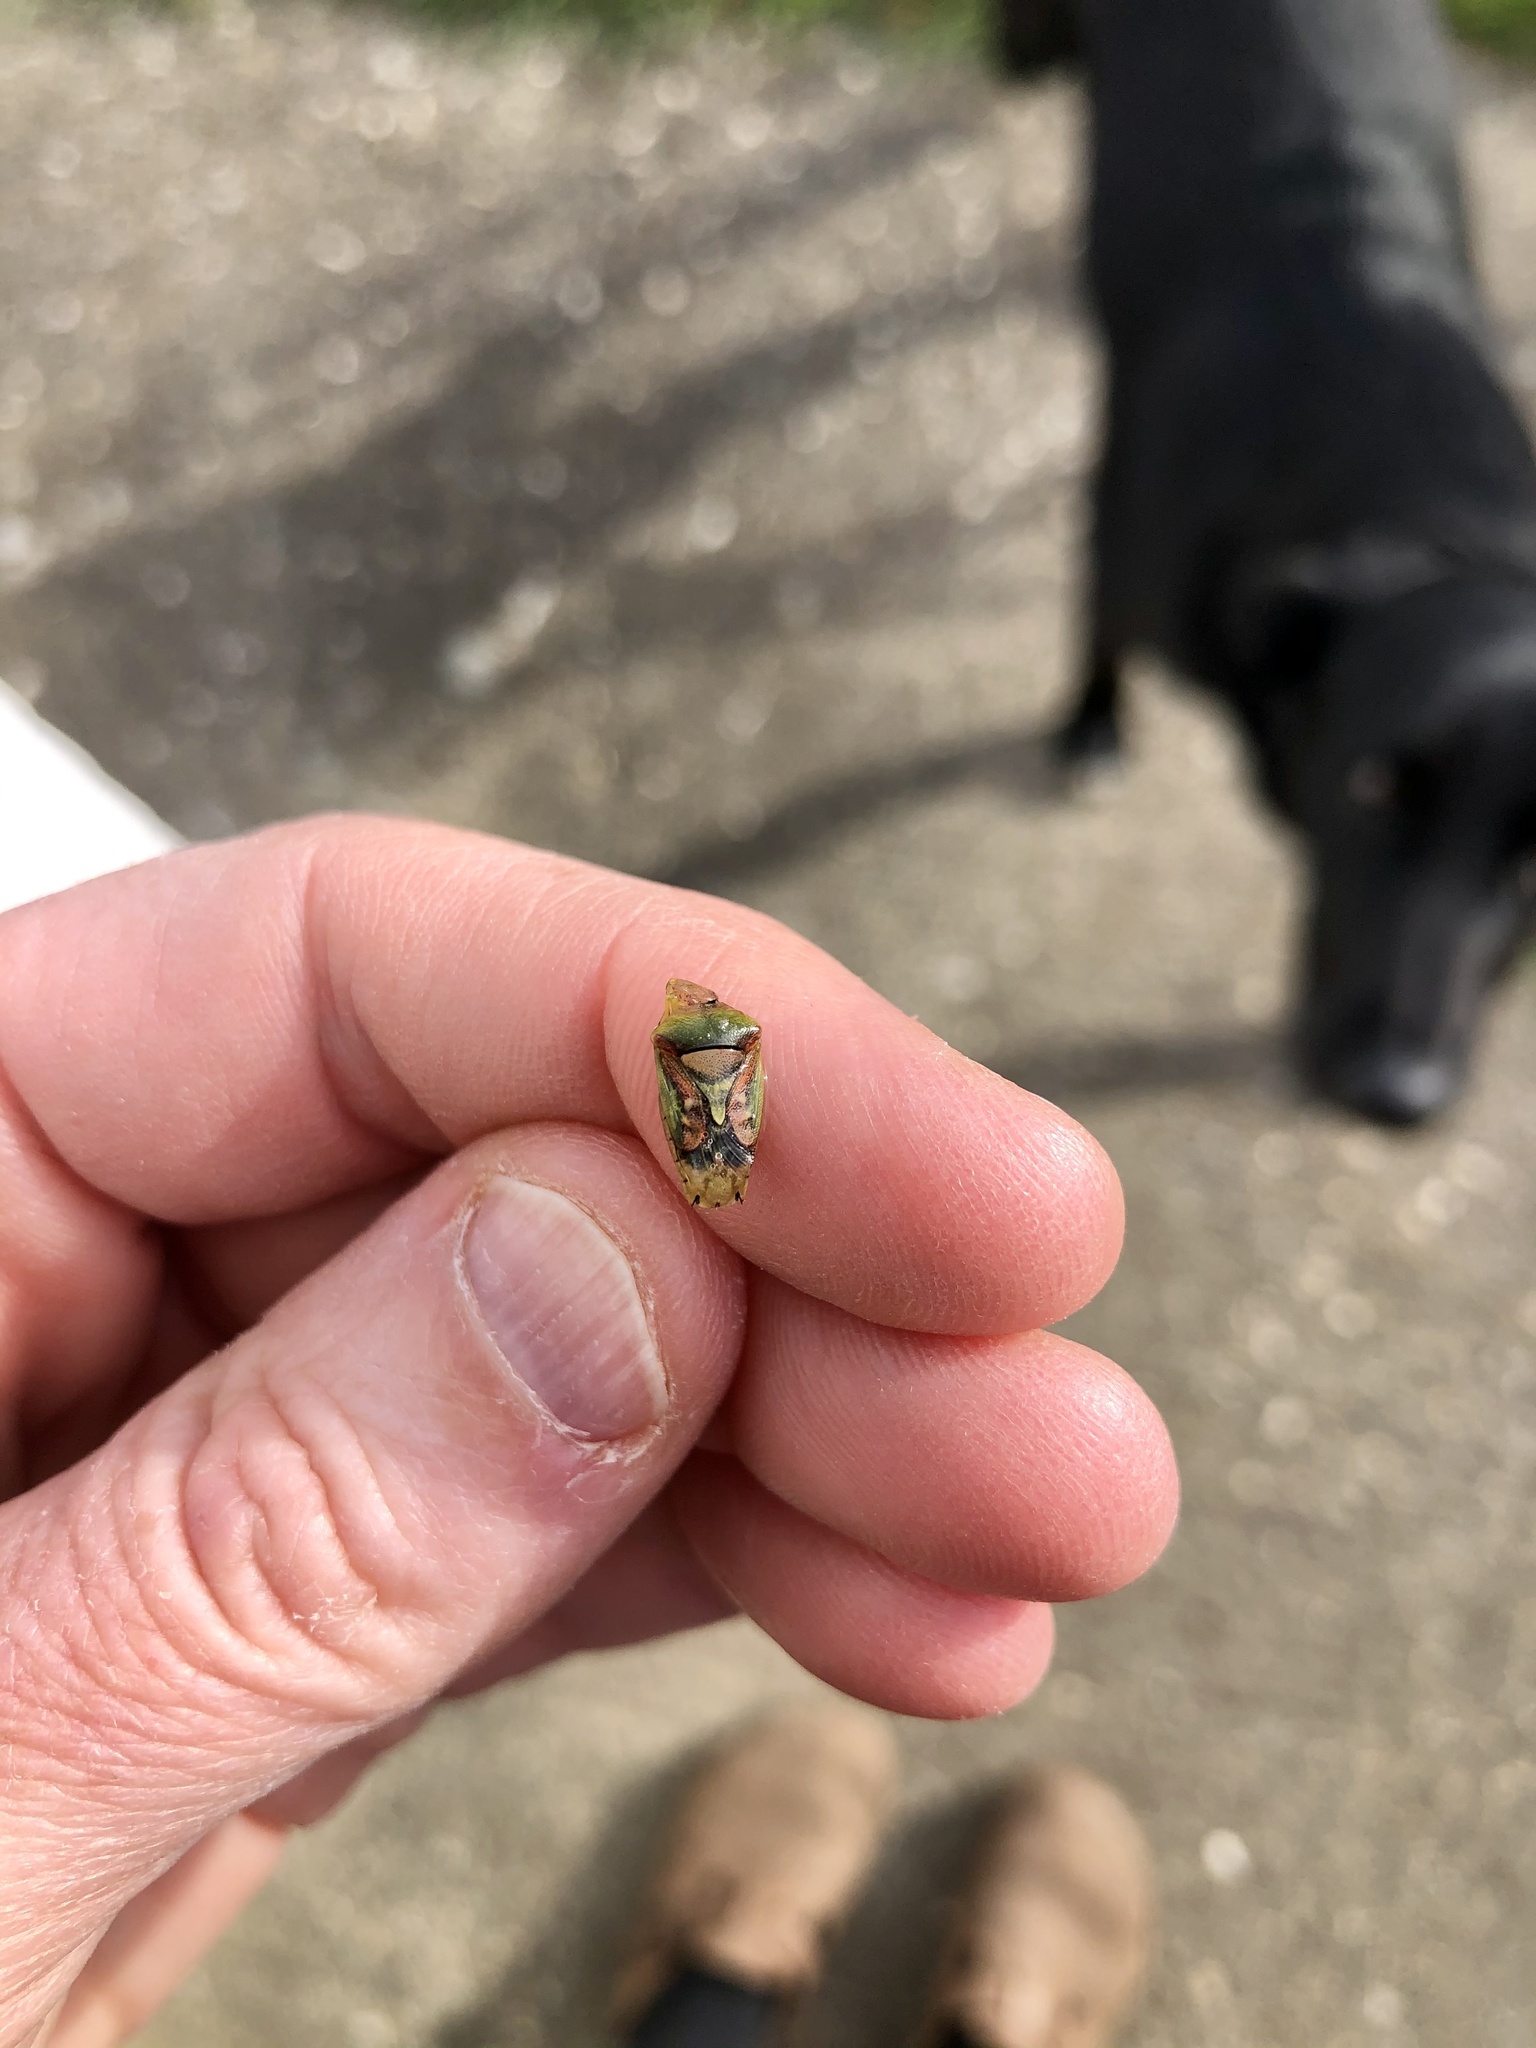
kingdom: Animalia
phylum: Arthropoda
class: Insecta
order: Hemiptera
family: Acanthosomatidae
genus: Cyphostethus
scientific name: Cyphostethus tristriatus
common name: Juniper shieldbug
